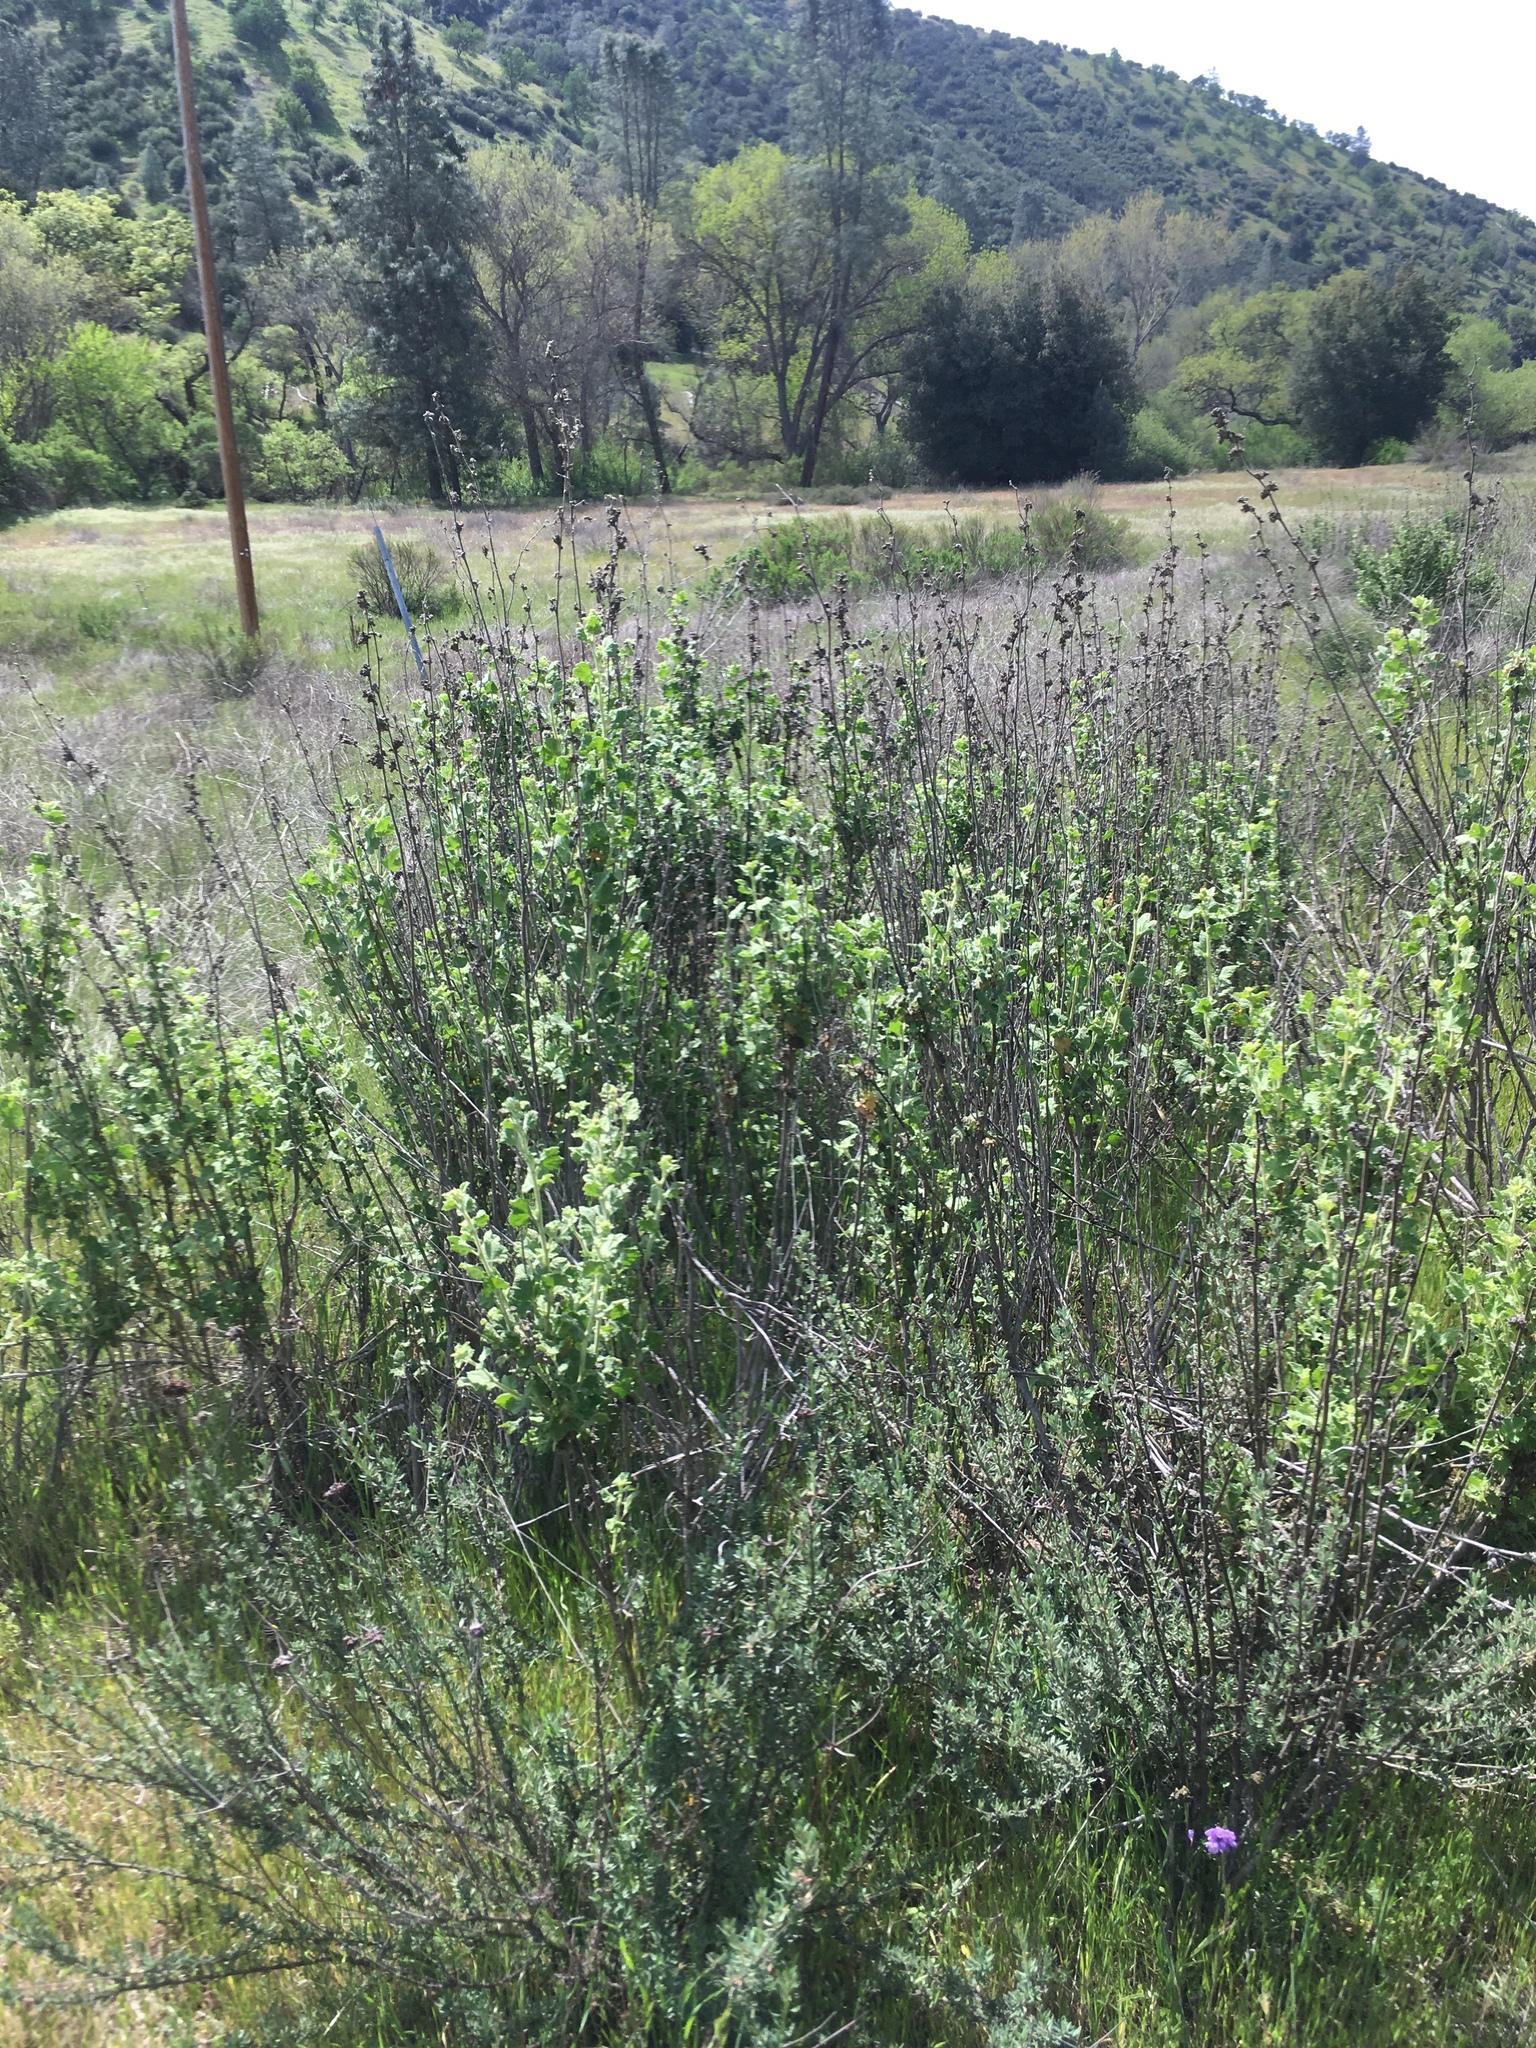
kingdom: Plantae
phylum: Tracheophyta
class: Magnoliopsida
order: Malvales
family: Malvaceae
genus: Malacothamnus
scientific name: Malacothamnus aboriginum
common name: Indian valley bush-mallow
